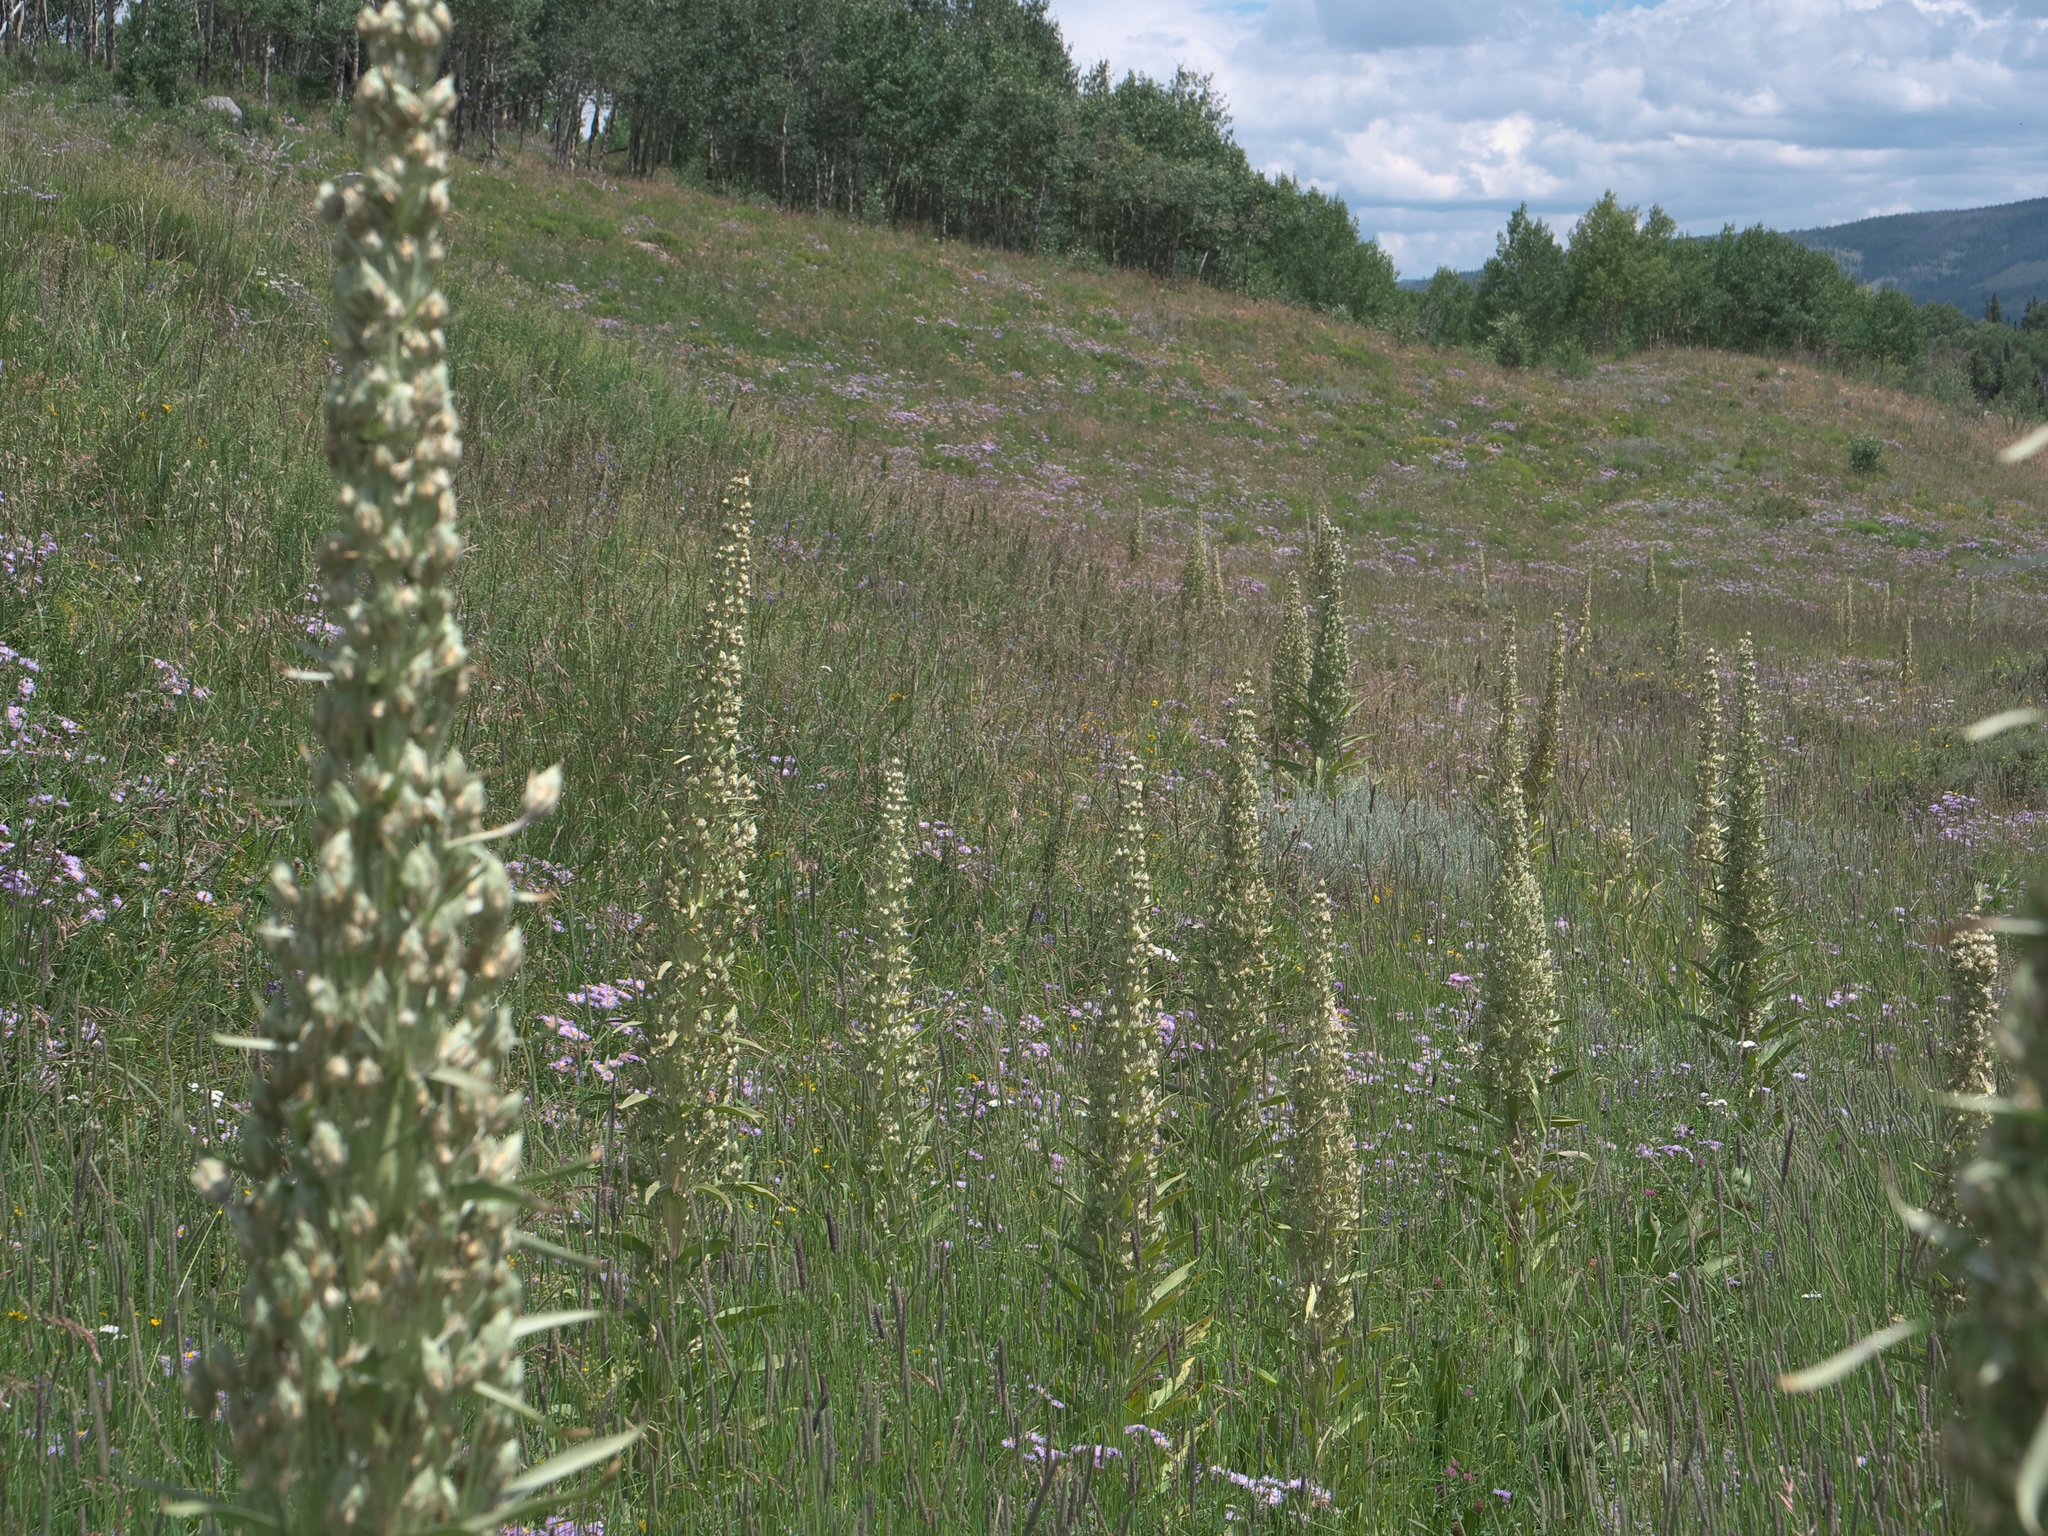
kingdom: Plantae
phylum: Tracheophyta
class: Magnoliopsida
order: Gentianales
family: Gentianaceae
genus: Frasera
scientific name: Frasera speciosa
